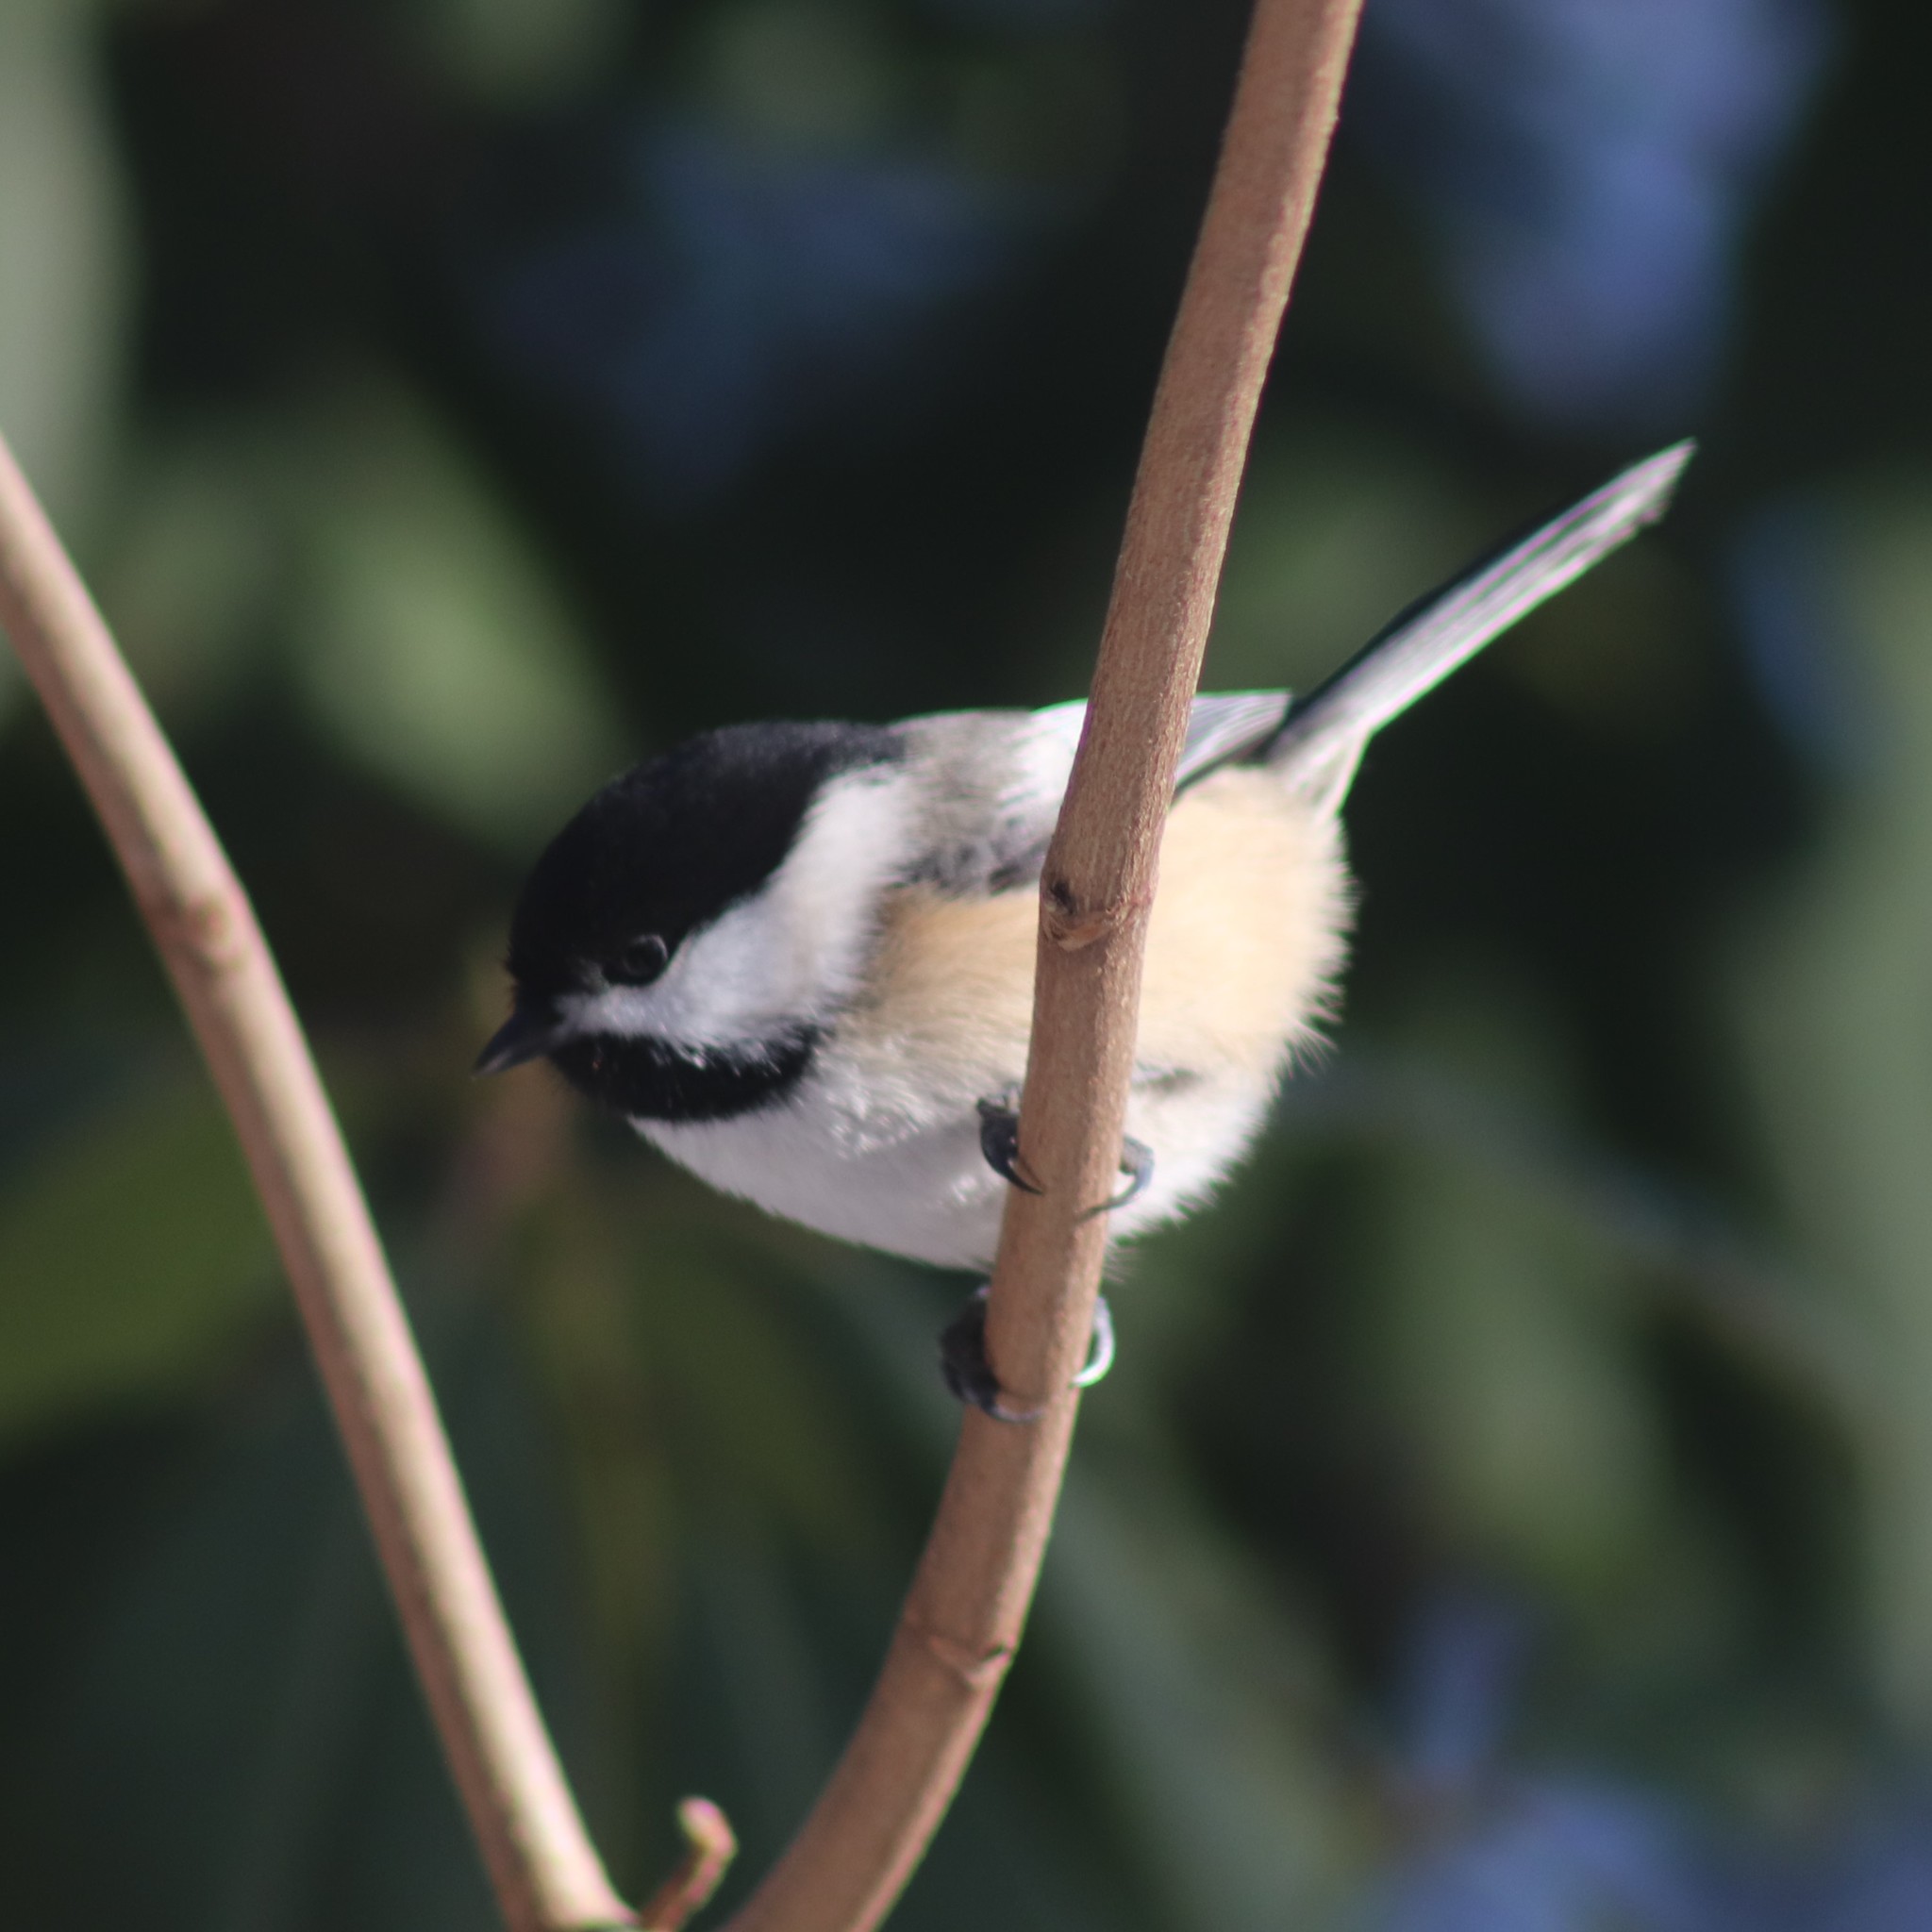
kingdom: Animalia
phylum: Chordata
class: Aves
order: Passeriformes
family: Paridae
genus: Poecile
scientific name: Poecile atricapillus
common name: Black-capped chickadee
